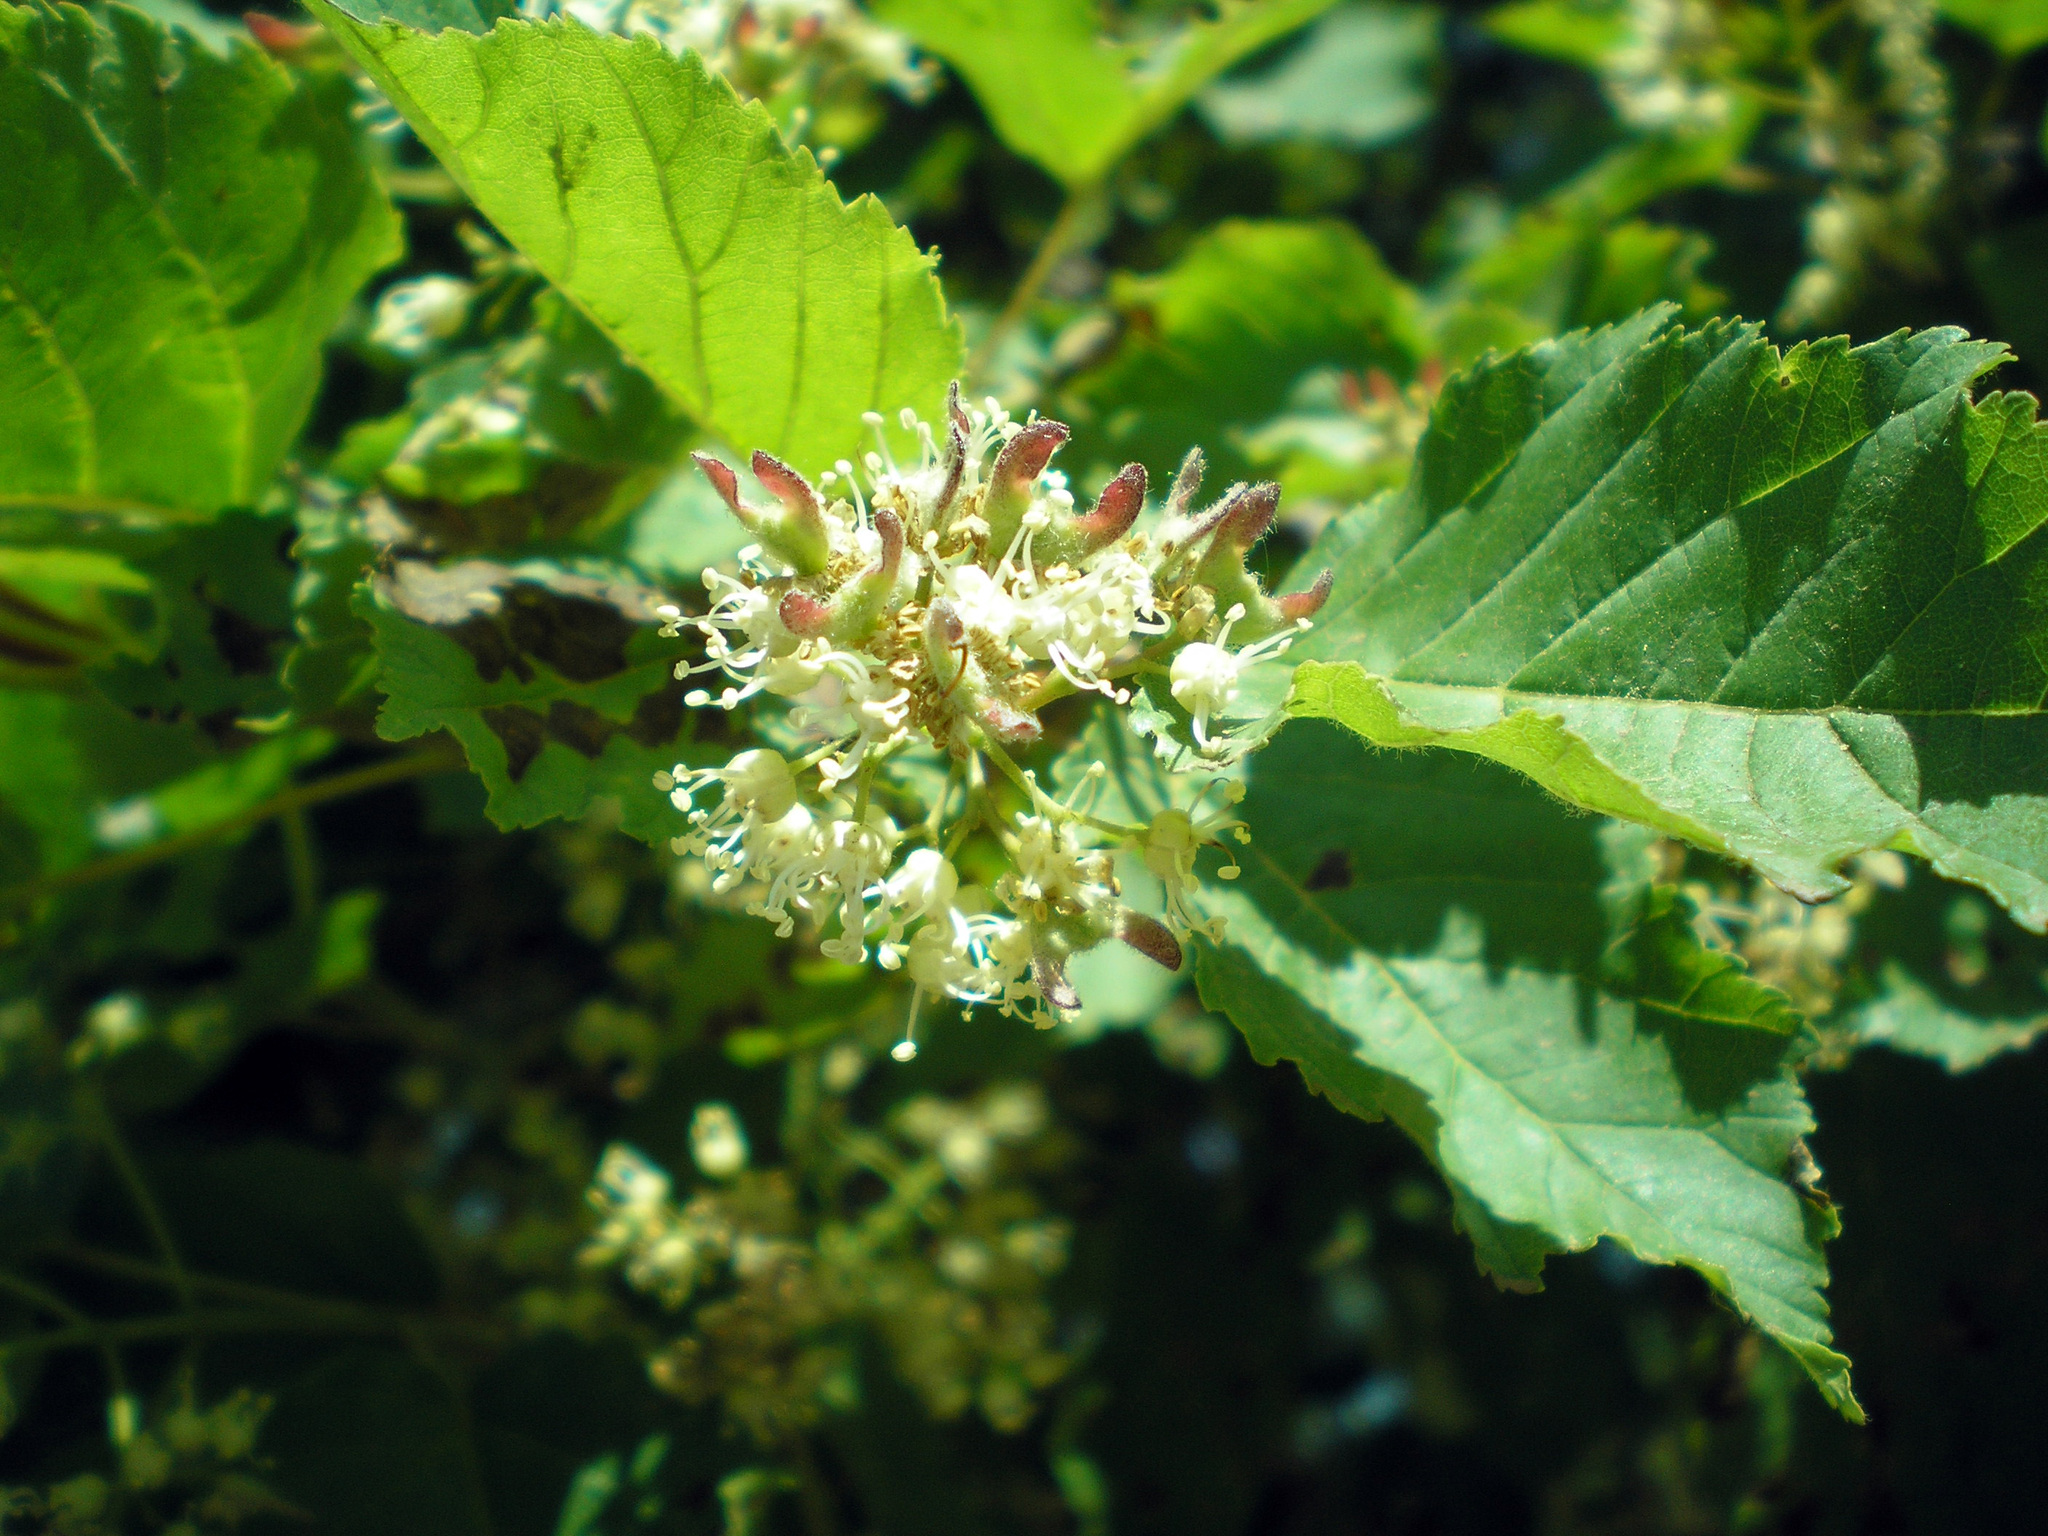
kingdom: Plantae
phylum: Tracheophyta
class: Magnoliopsida
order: Sapindales
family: Sapindaceae
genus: Acer
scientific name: Acer tataricum
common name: Tartar maple
